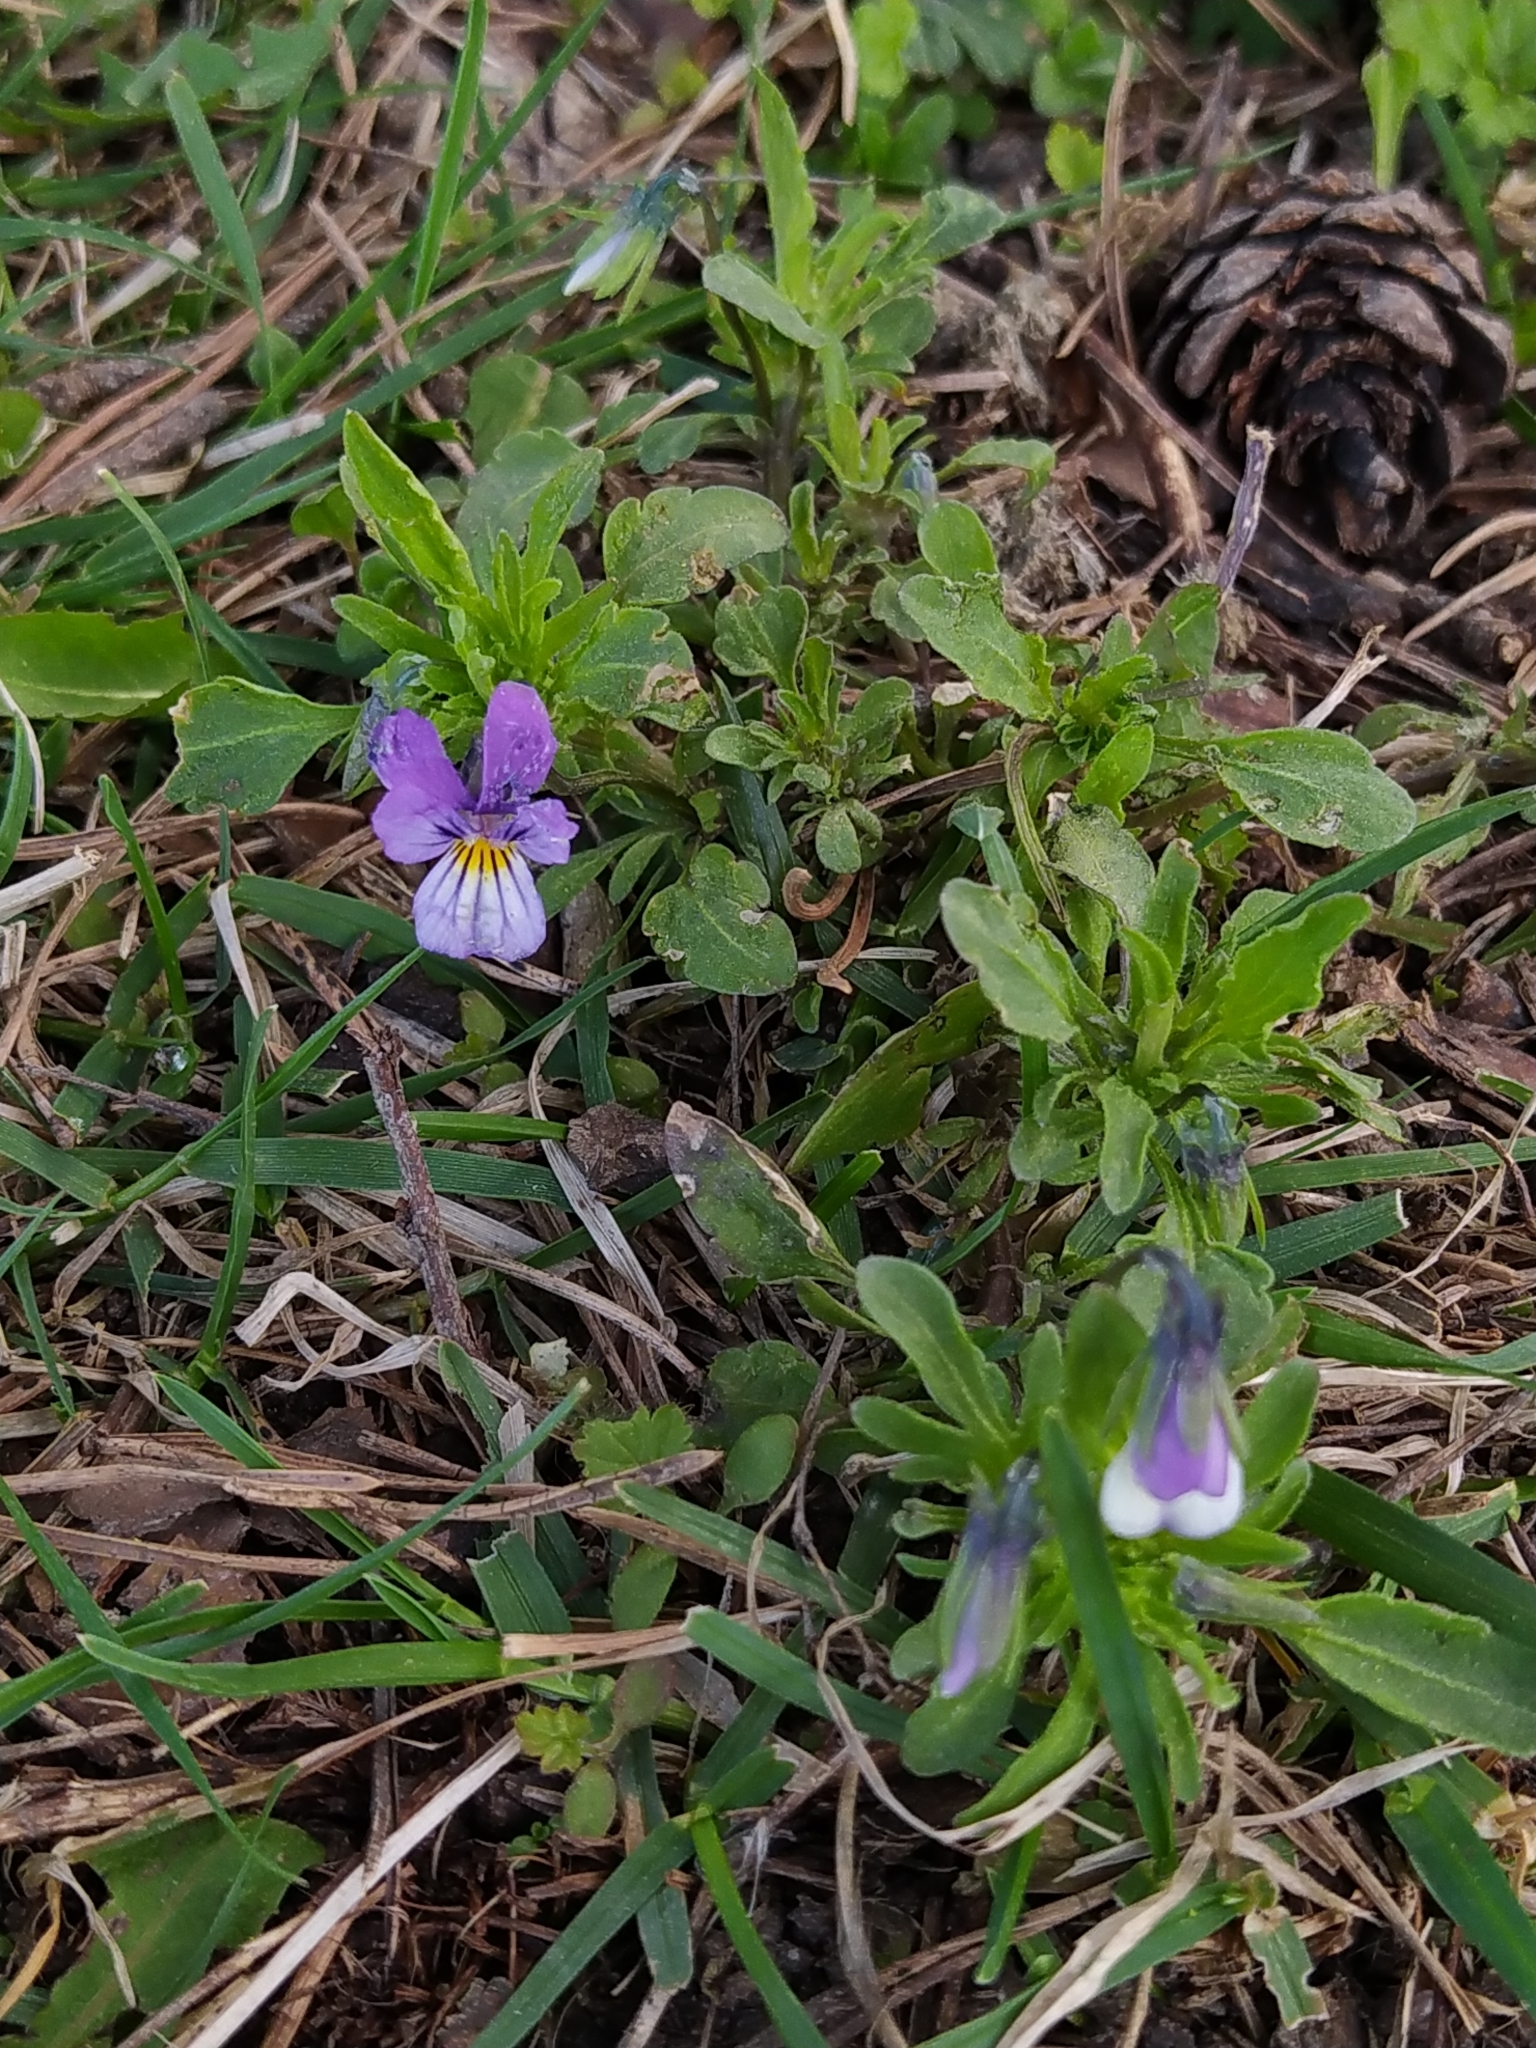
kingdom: Plantae
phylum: Tracheophyta
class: Magnoliopsida
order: Malpighiales
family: Violaceae
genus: Viola
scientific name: Viola tricolor
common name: Pansy
